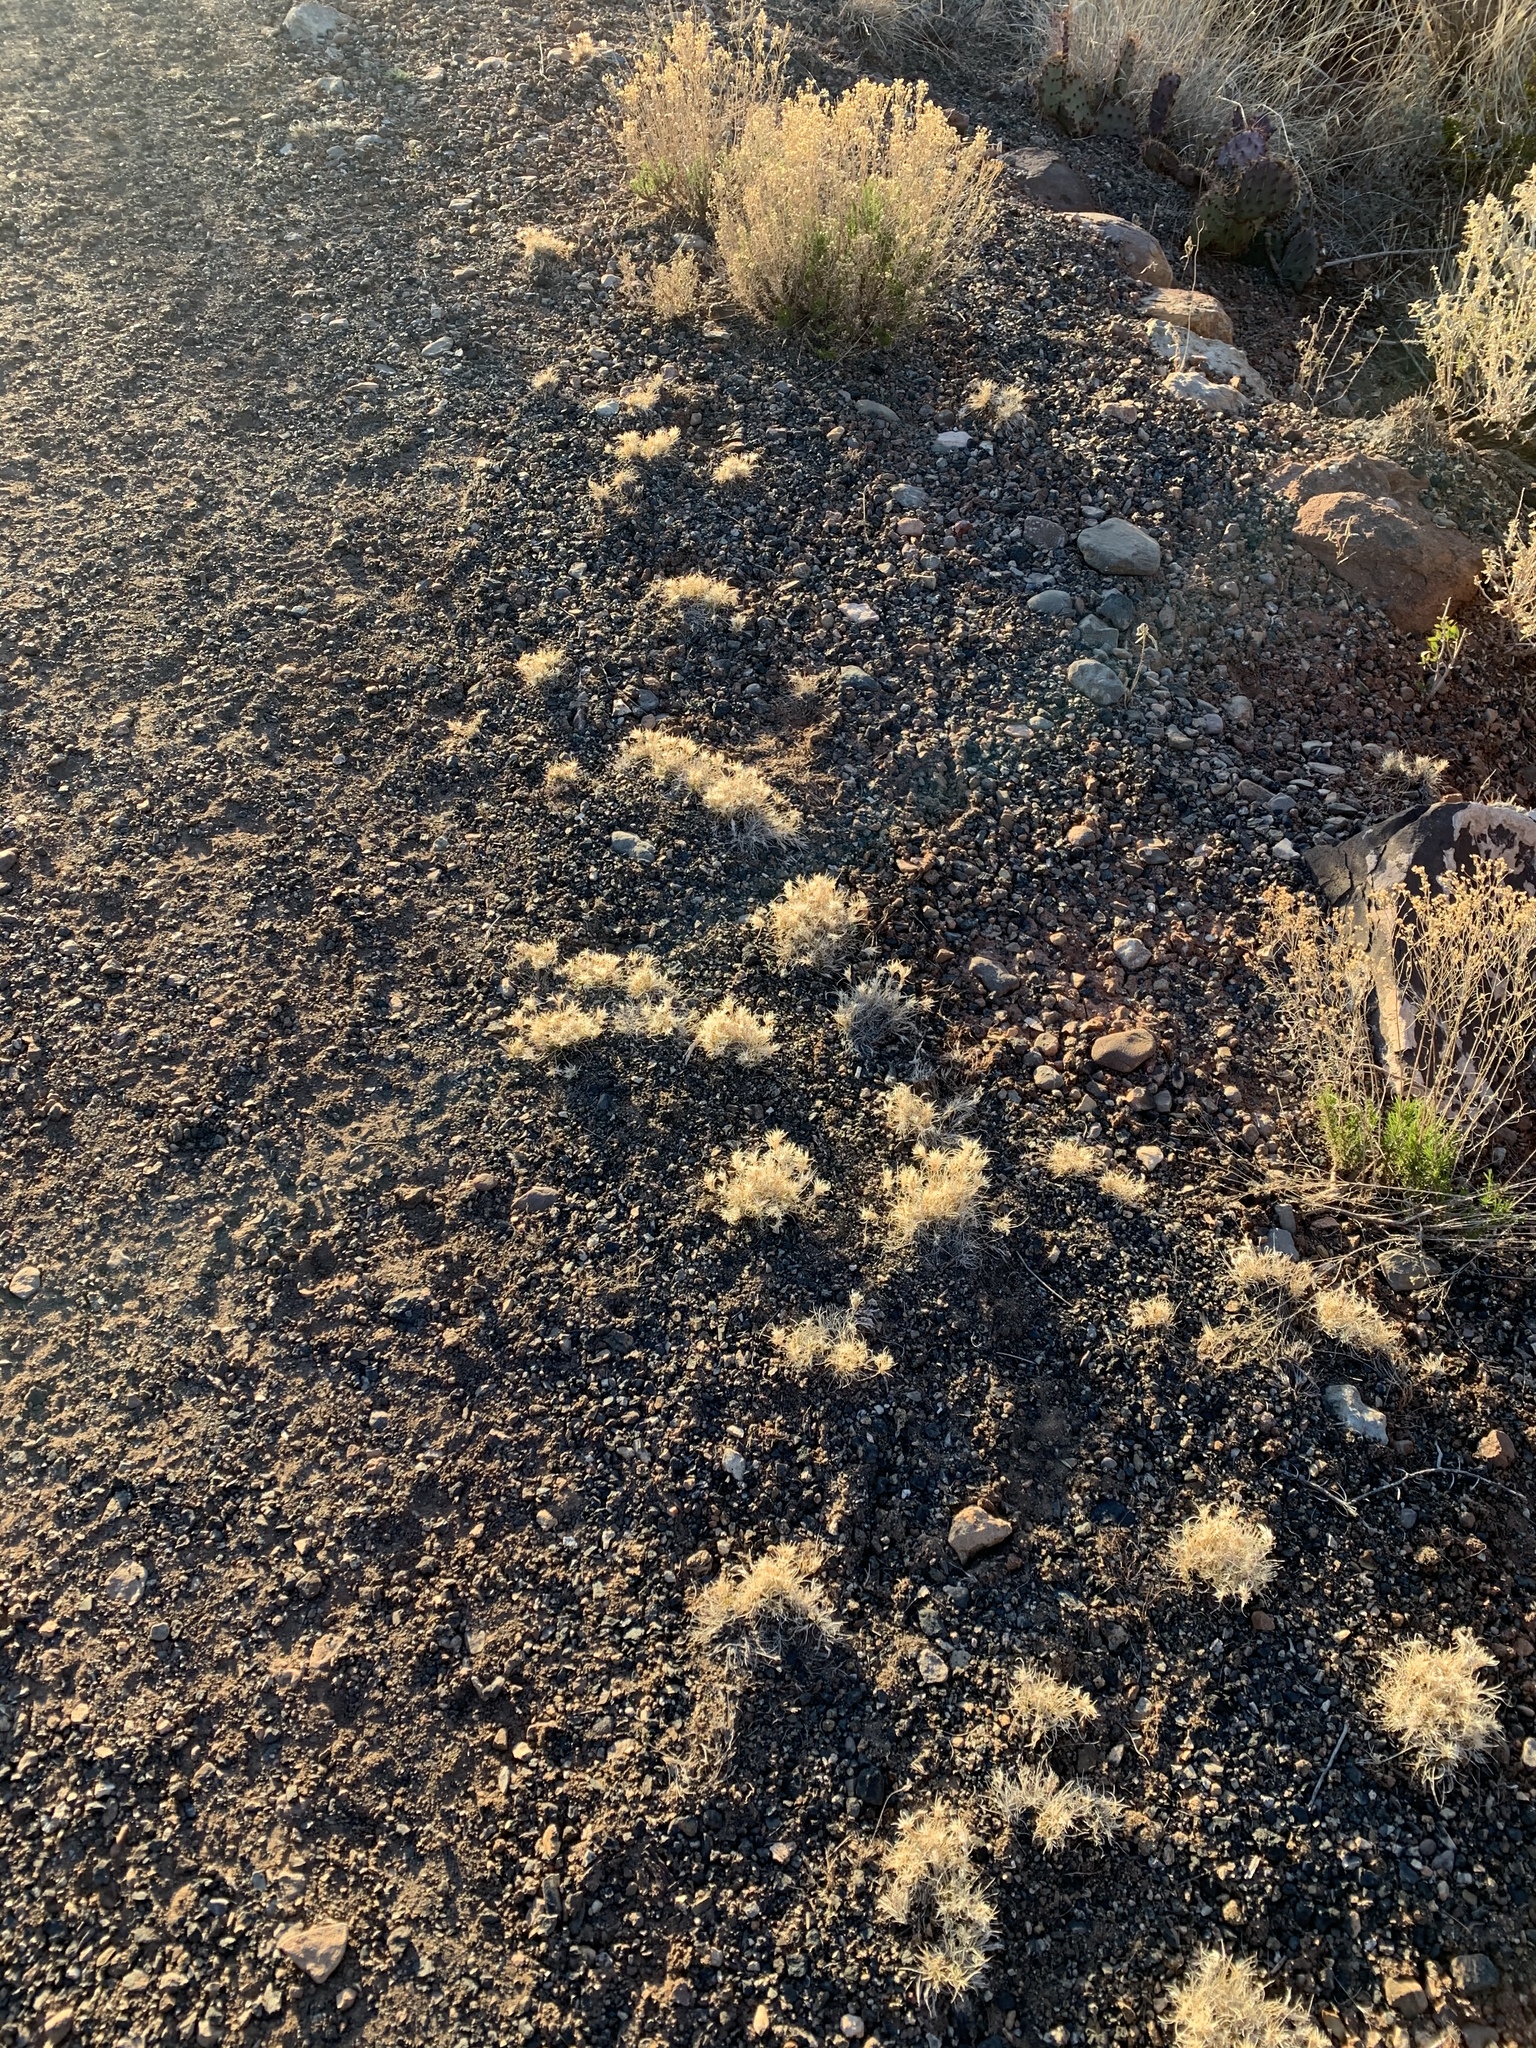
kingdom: Plantae
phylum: Tracheophyta
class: Liliopsida
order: Poales
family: Poaceae
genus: Dasyochloa
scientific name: Dasyochloa pulchella
